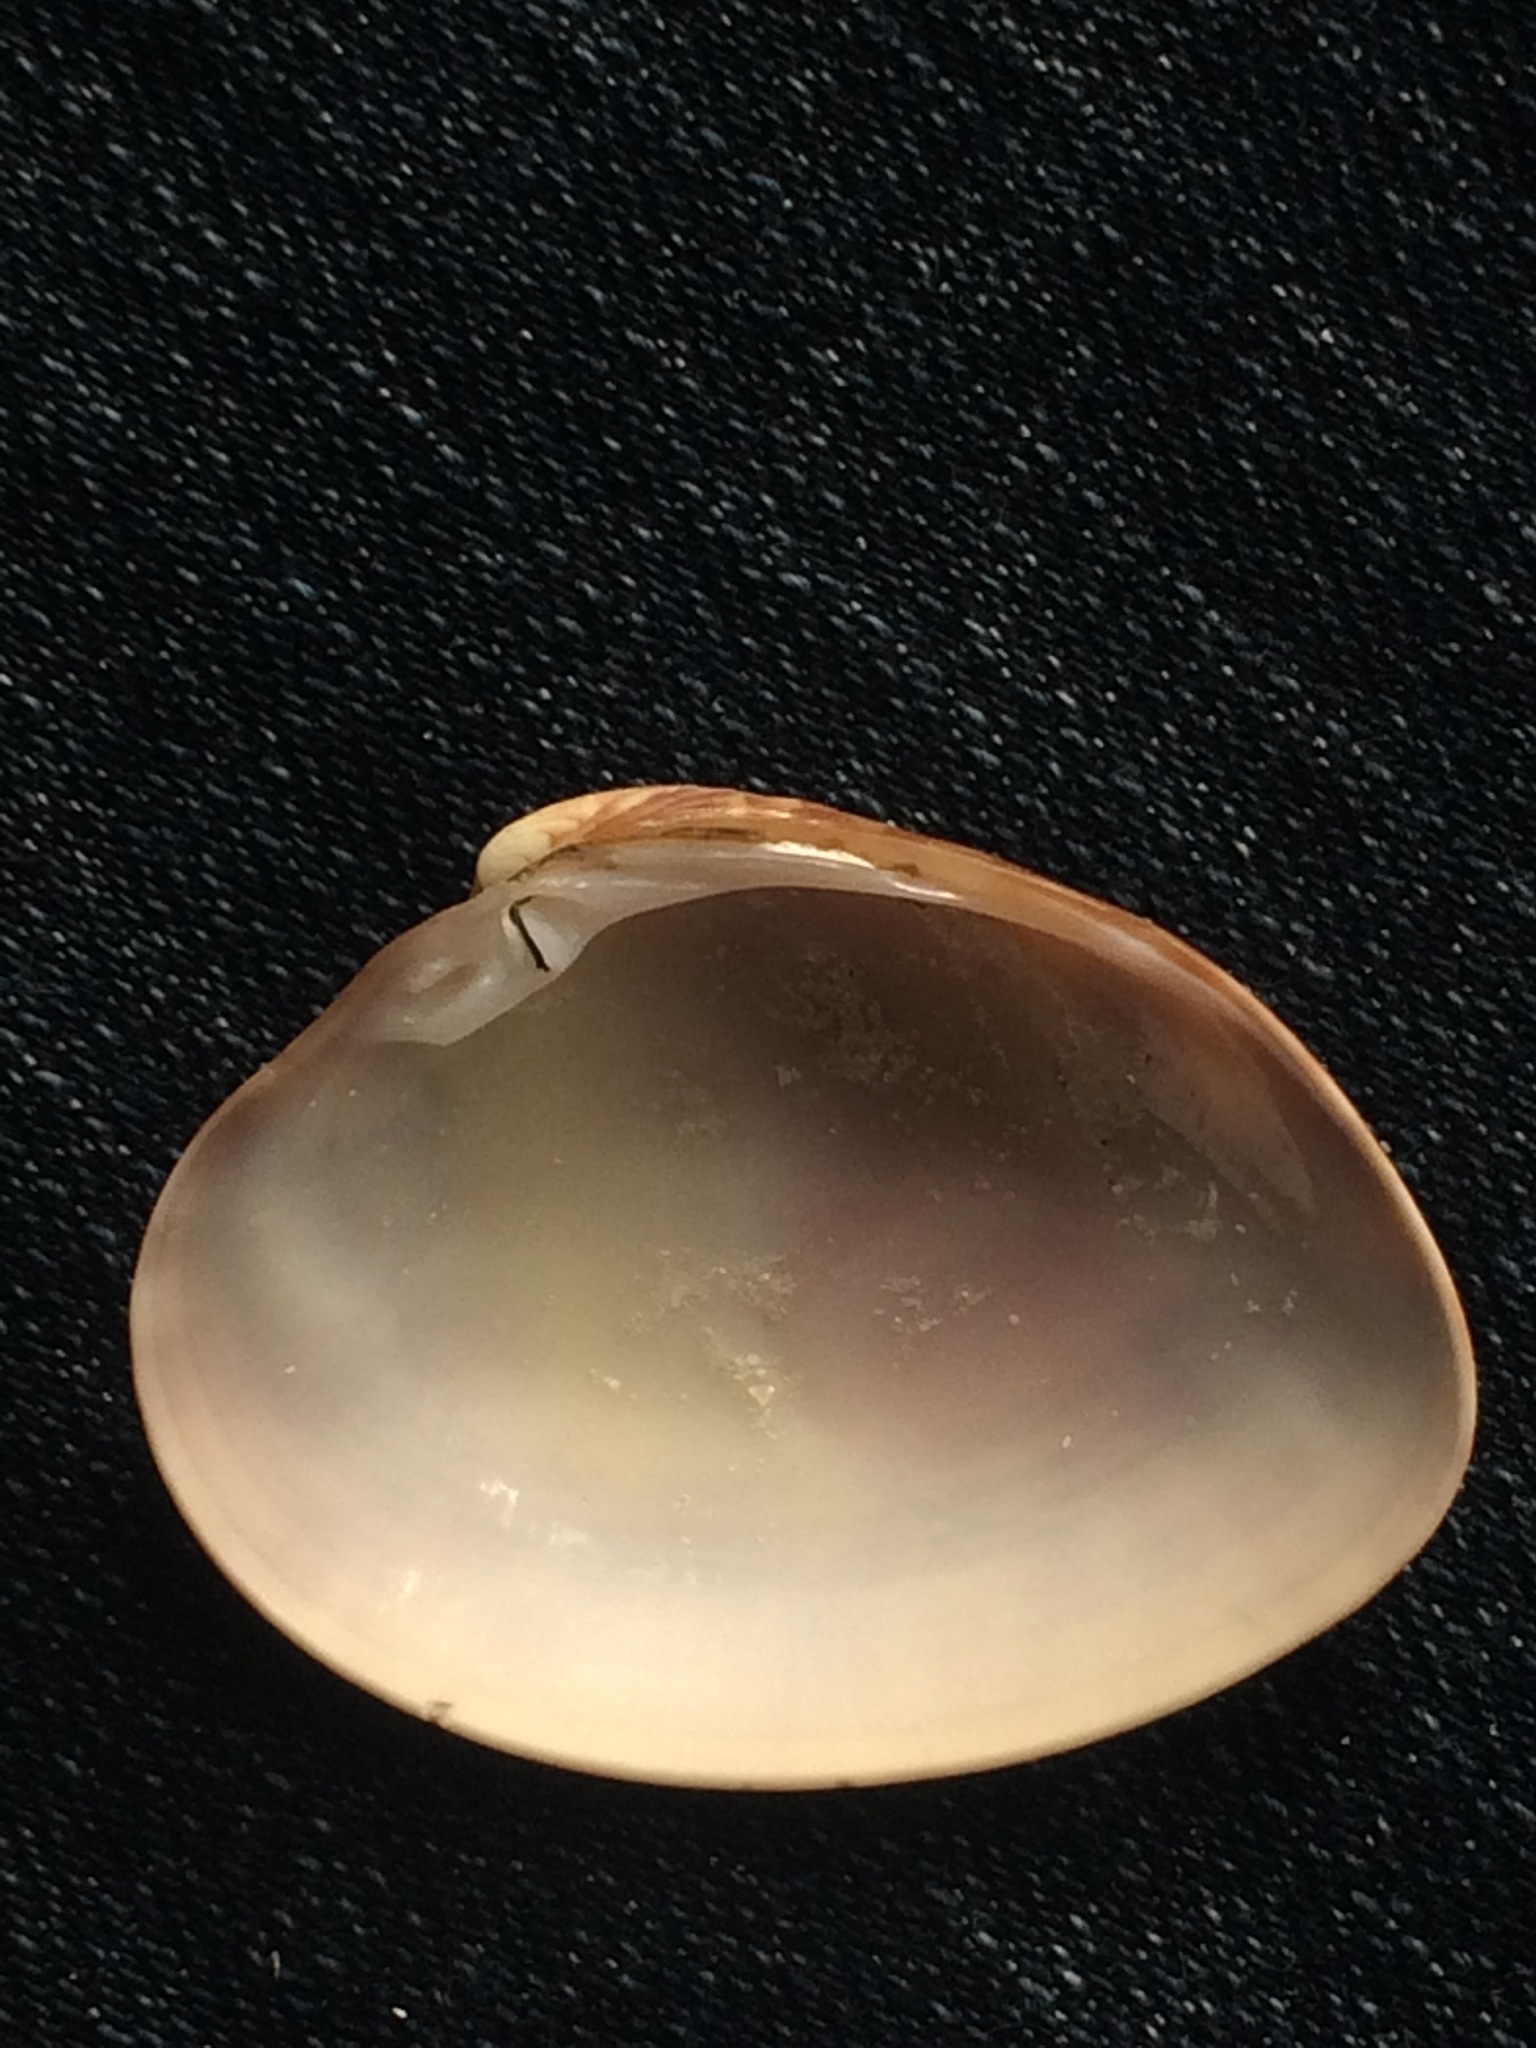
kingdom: Animalia
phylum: Mollusca
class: Bivalvia
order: Venerida
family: Veneridae
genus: Megapitaria
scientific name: Megapitaria maculata
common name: Calico clam
